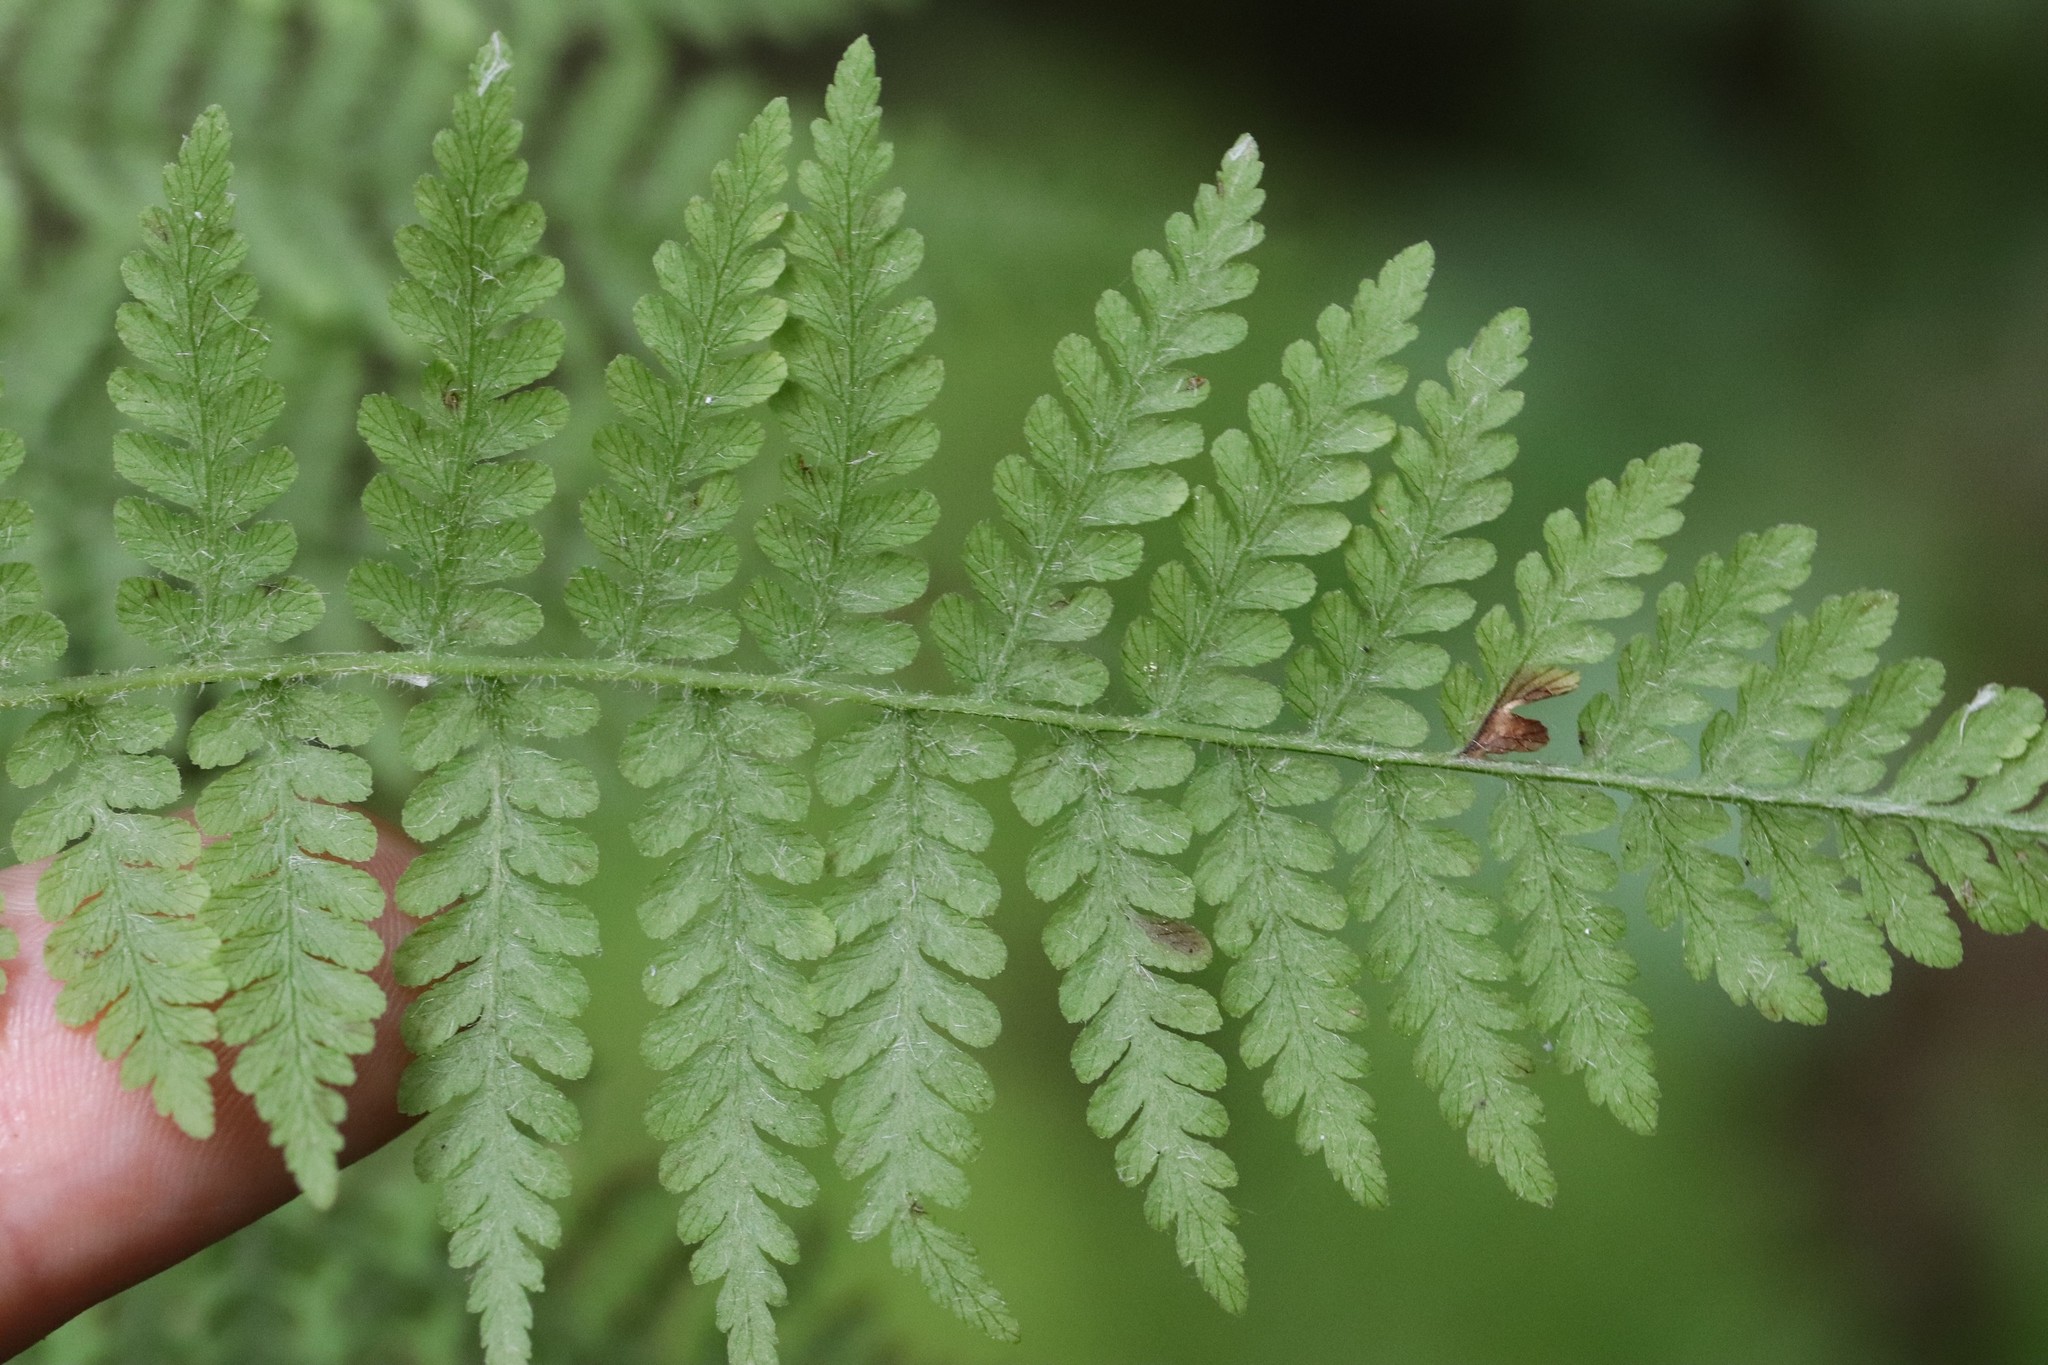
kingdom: Plantae
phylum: Tracheophyta
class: Polypodiopsida
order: Polypodiales
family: Athyriaceae
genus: Diplazium
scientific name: Diplazium sibiricum
